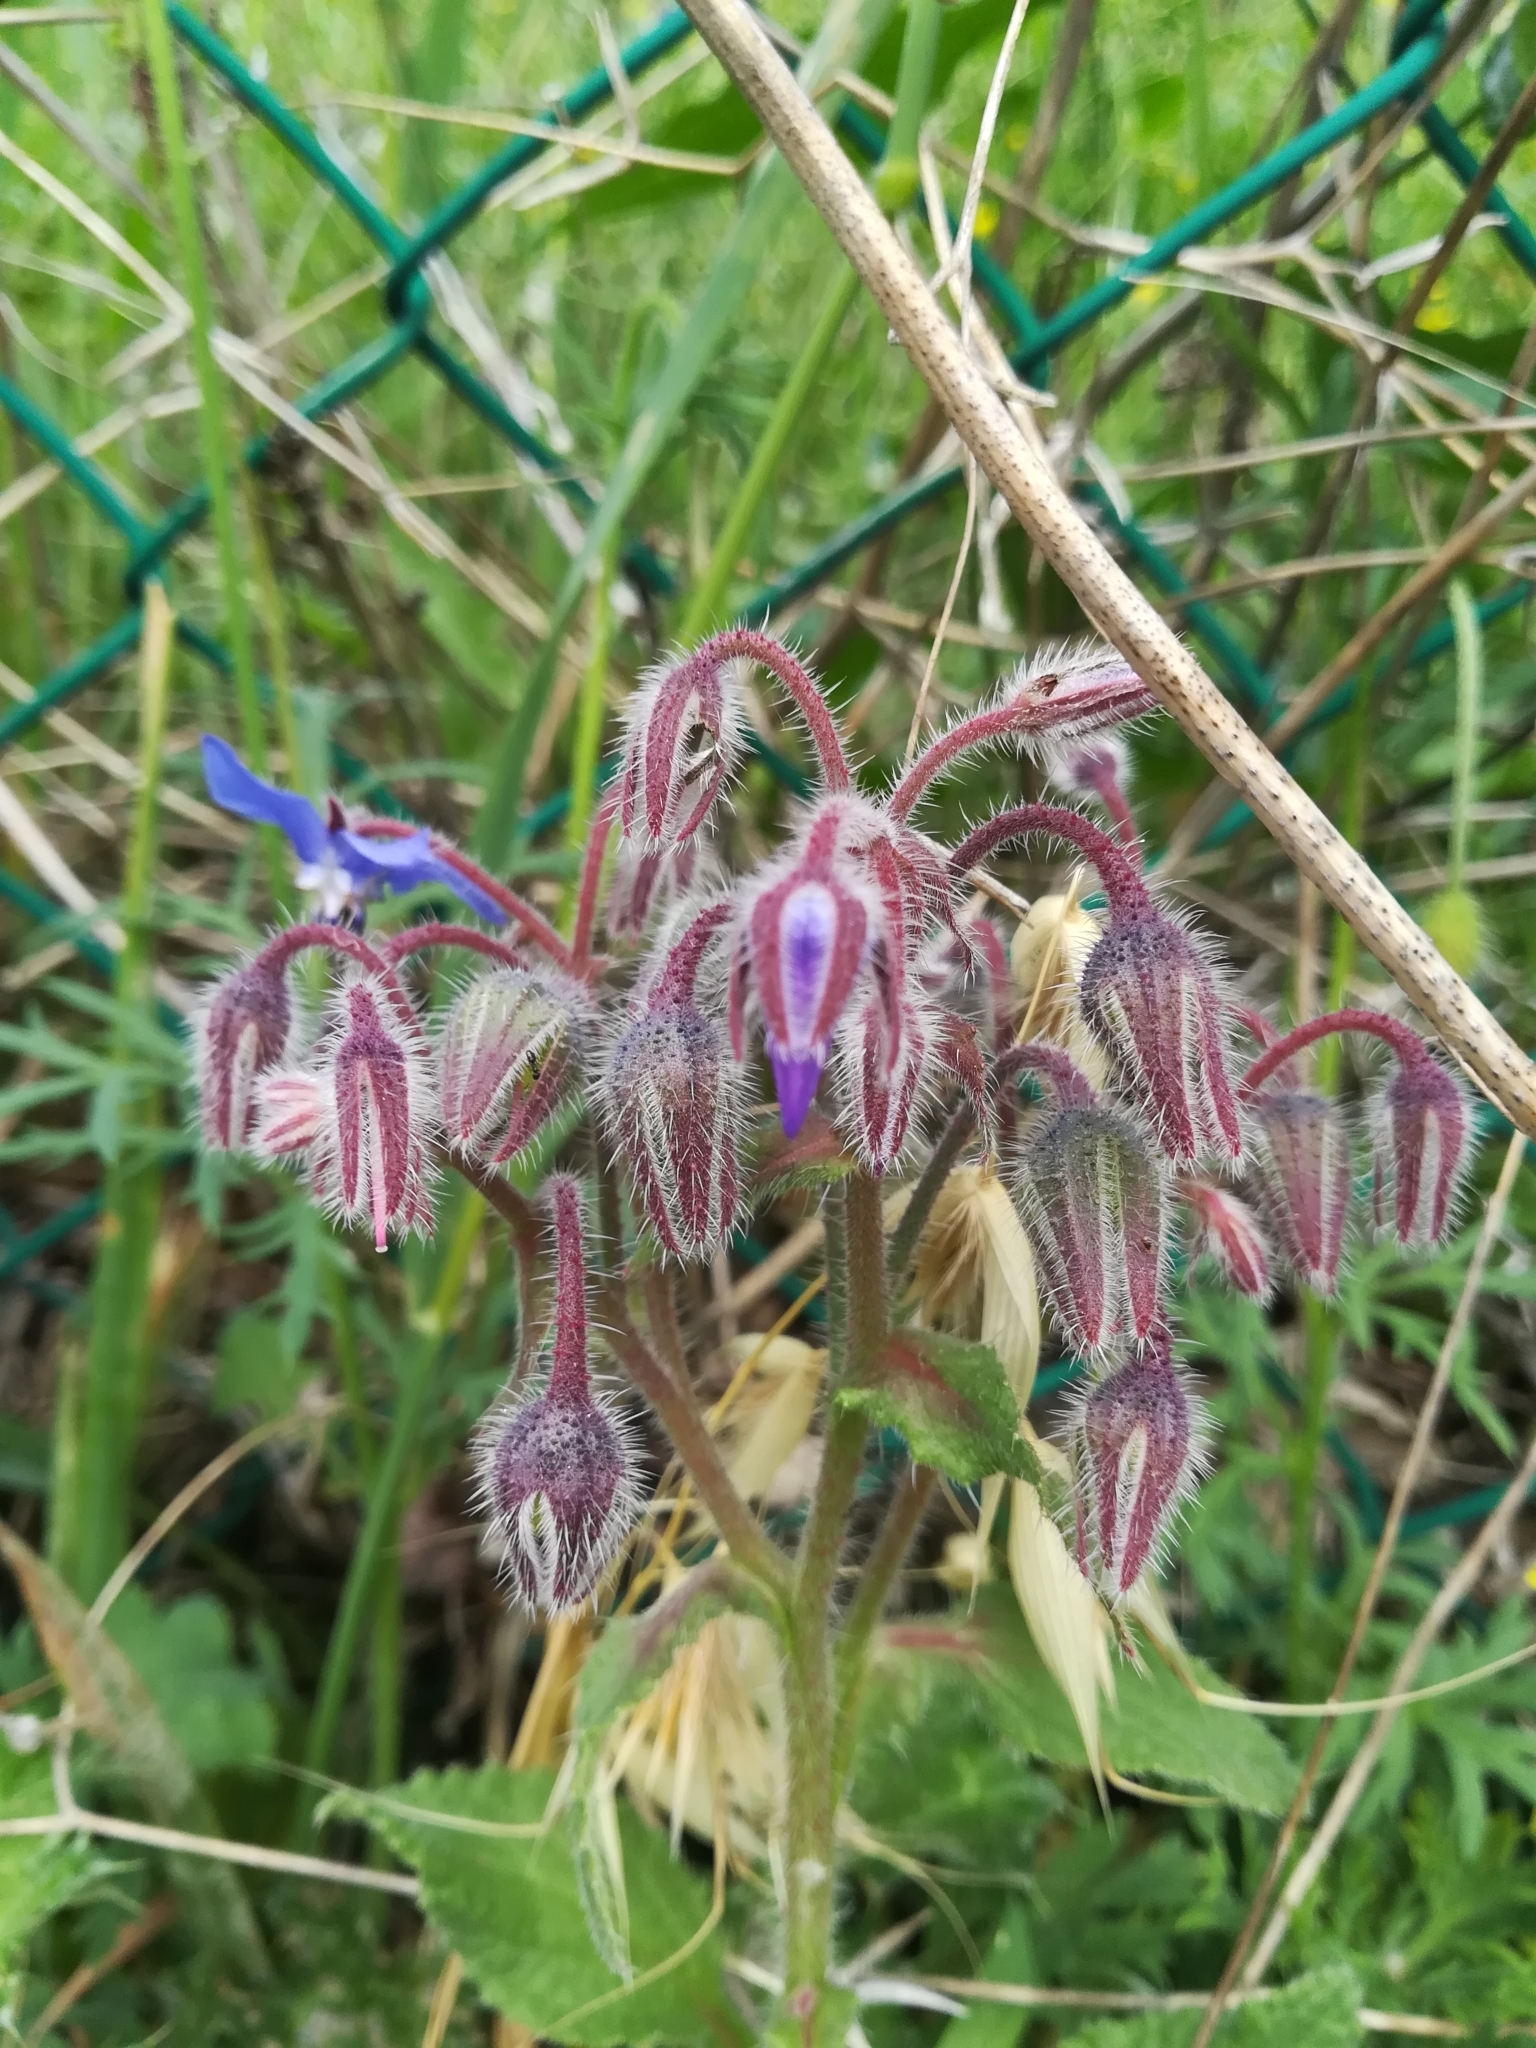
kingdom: Plantae
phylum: Tracheophyta
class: Magnoliopsida
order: Boraginales
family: Boraginaceae
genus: Borago
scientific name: Borago officinalis
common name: Borage
